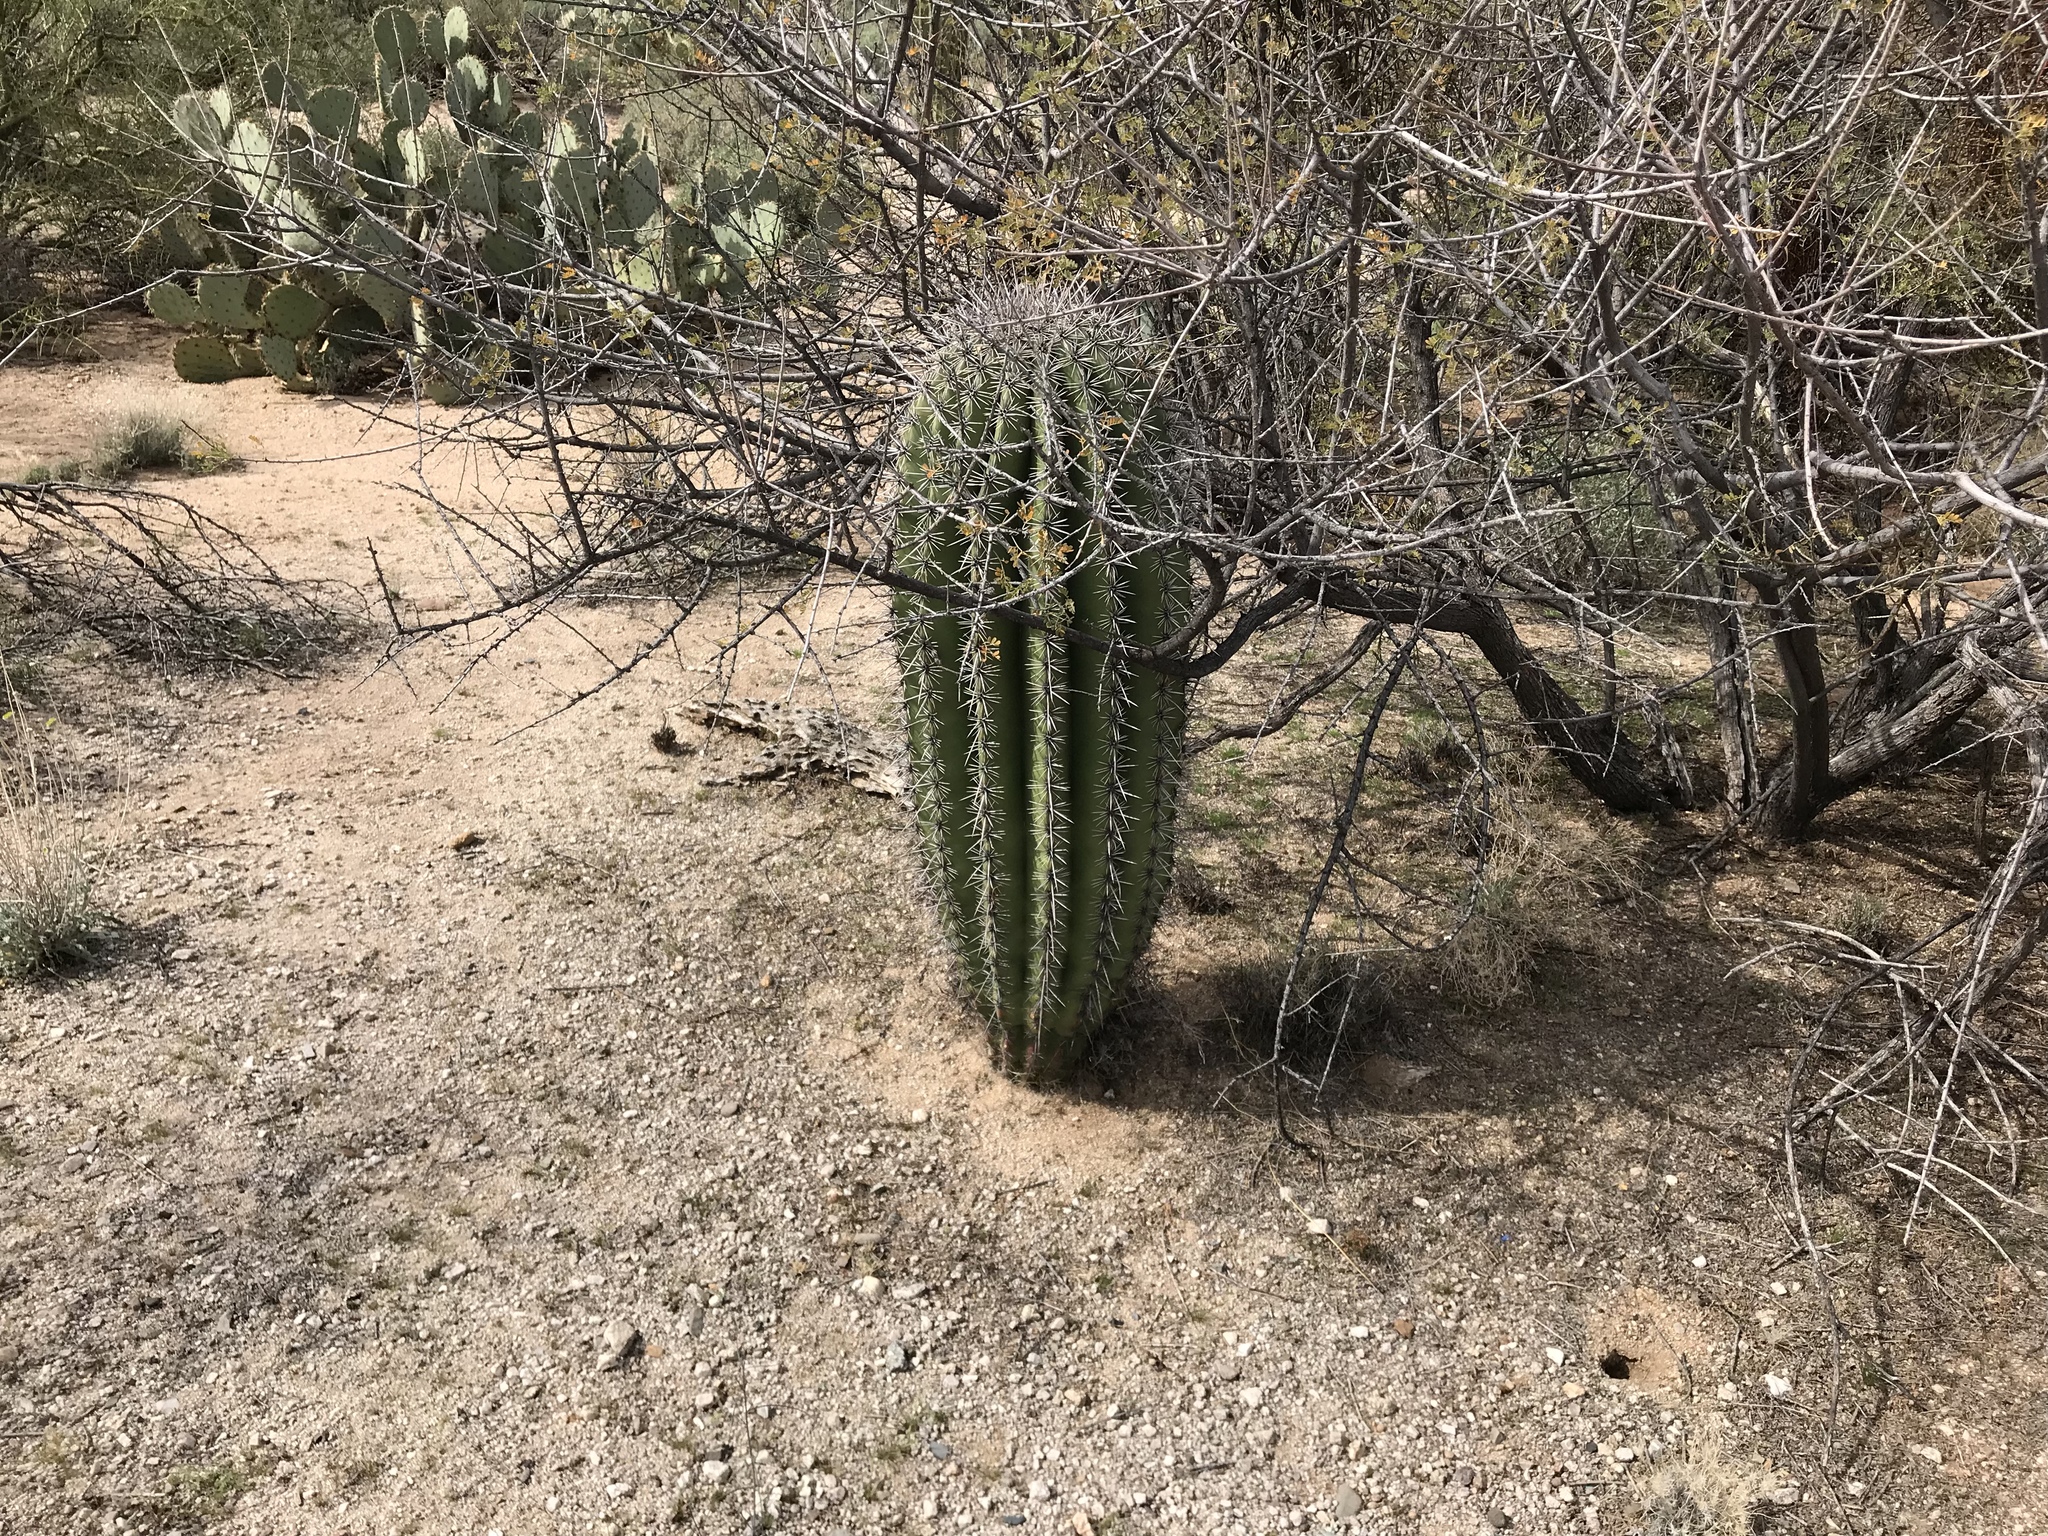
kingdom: Plantae
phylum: Tracheophyta
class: Magnoliopsida
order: Caryophyllales
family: Cactaceae
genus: Carnegiea
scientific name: Carnegiea gigantea
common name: Saguaro
